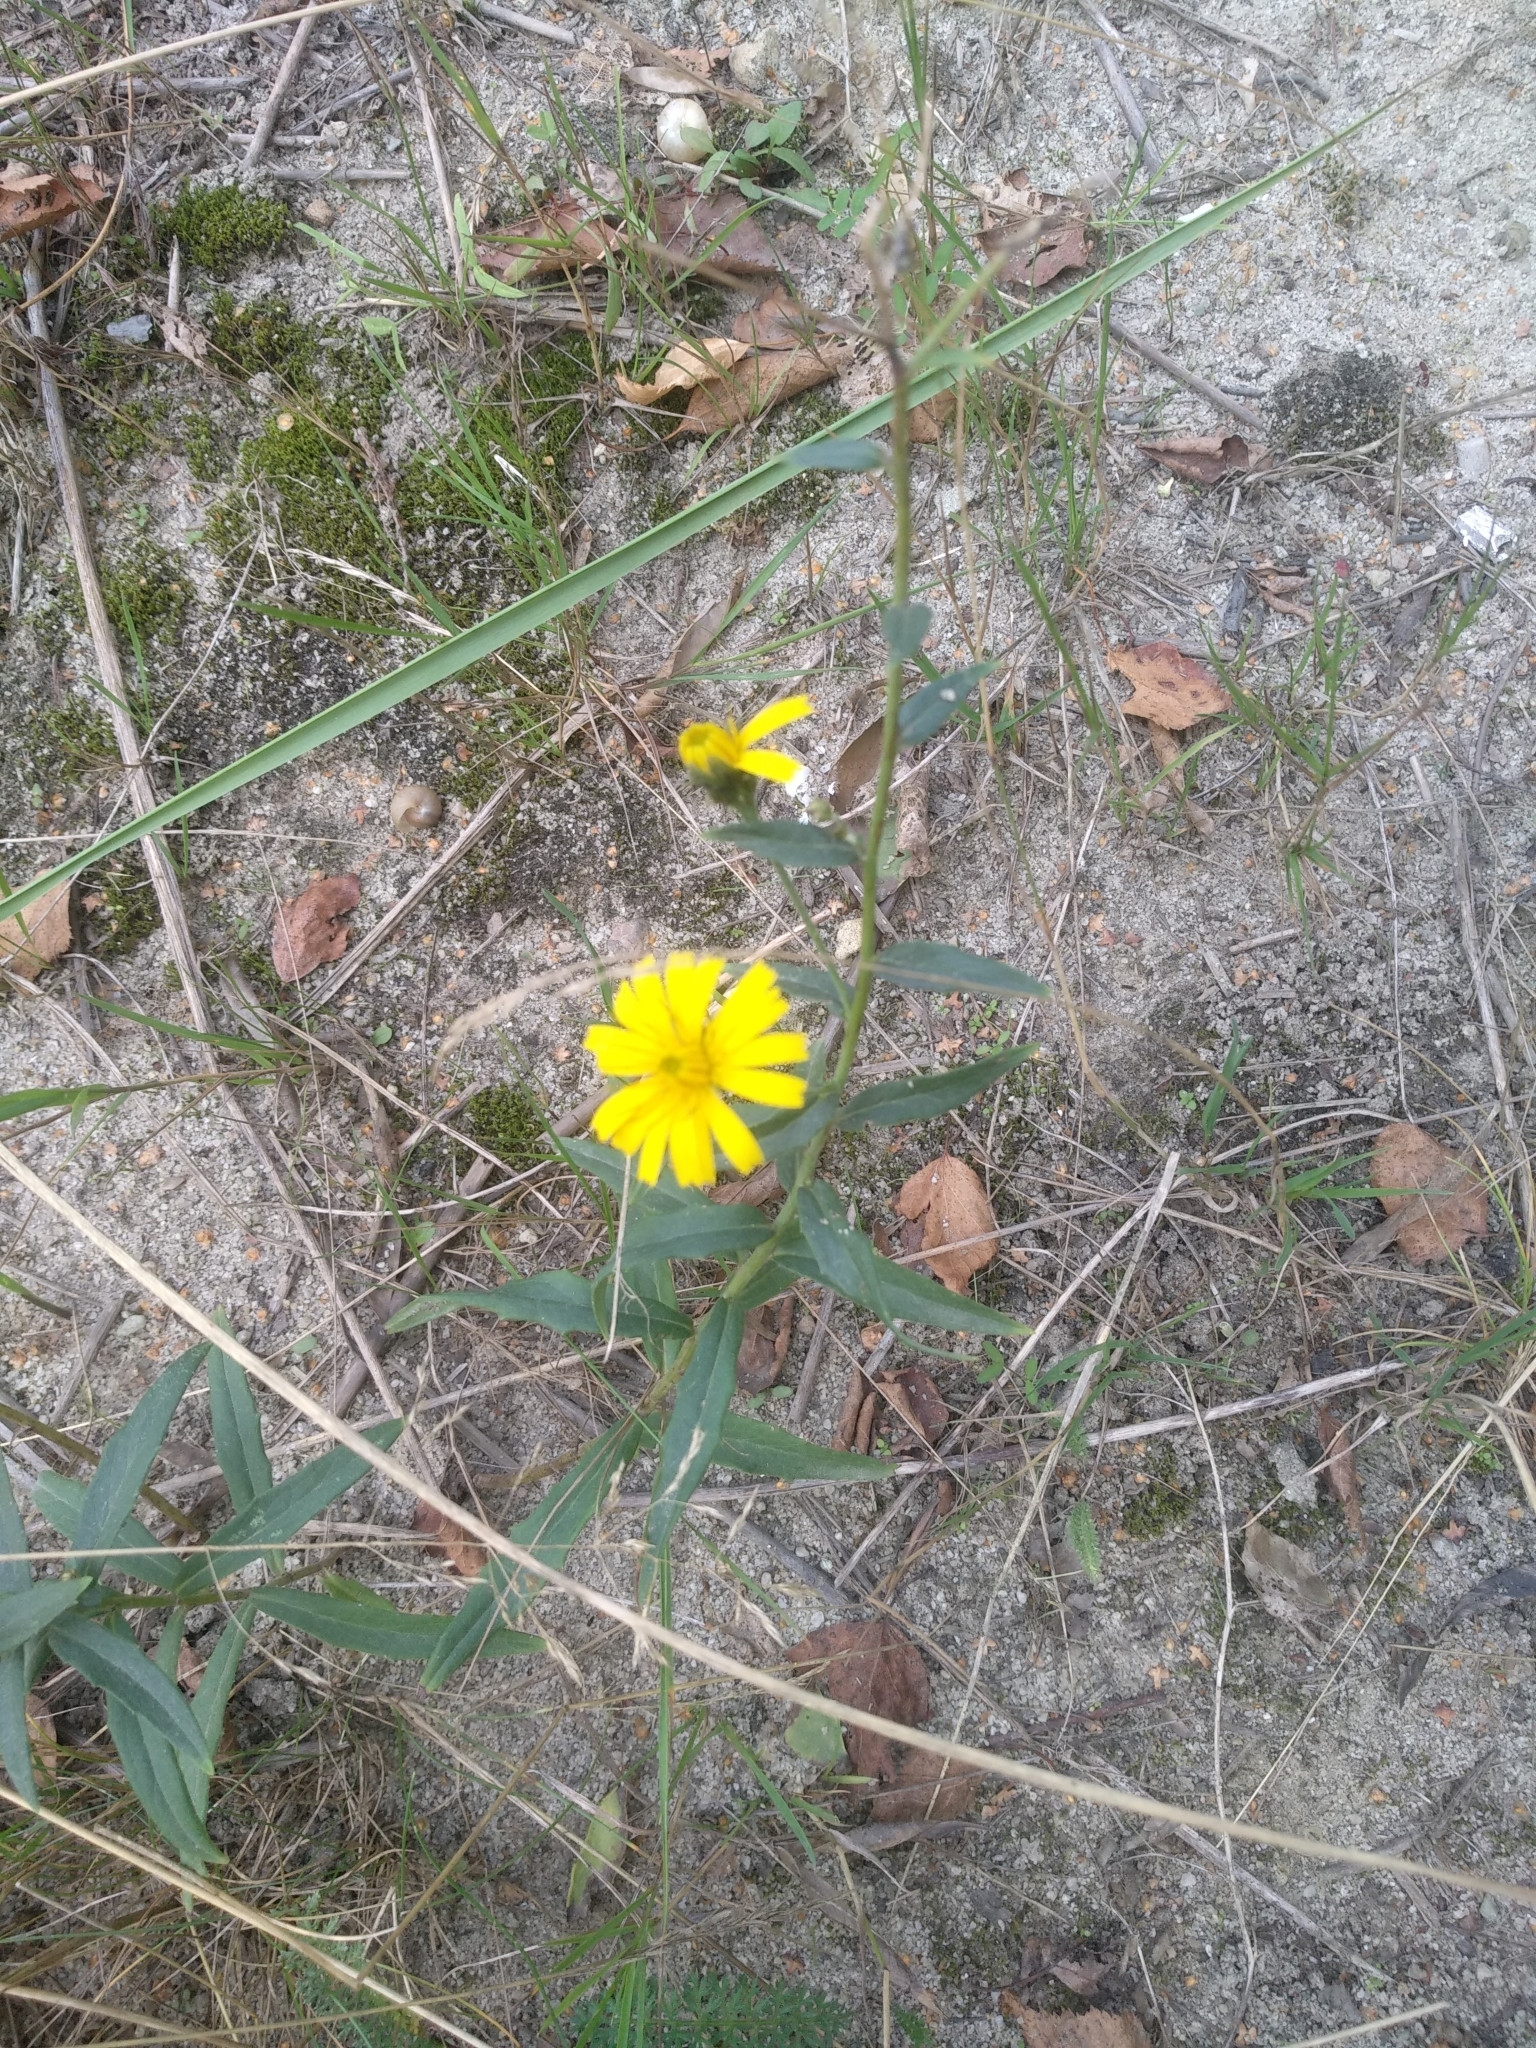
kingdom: Plantae
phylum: Tracheophyta
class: Magnoliopsida
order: Asterales
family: Asteraceae
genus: Hieracium
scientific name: Hieracium umbellatum
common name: Northern hawkweed
